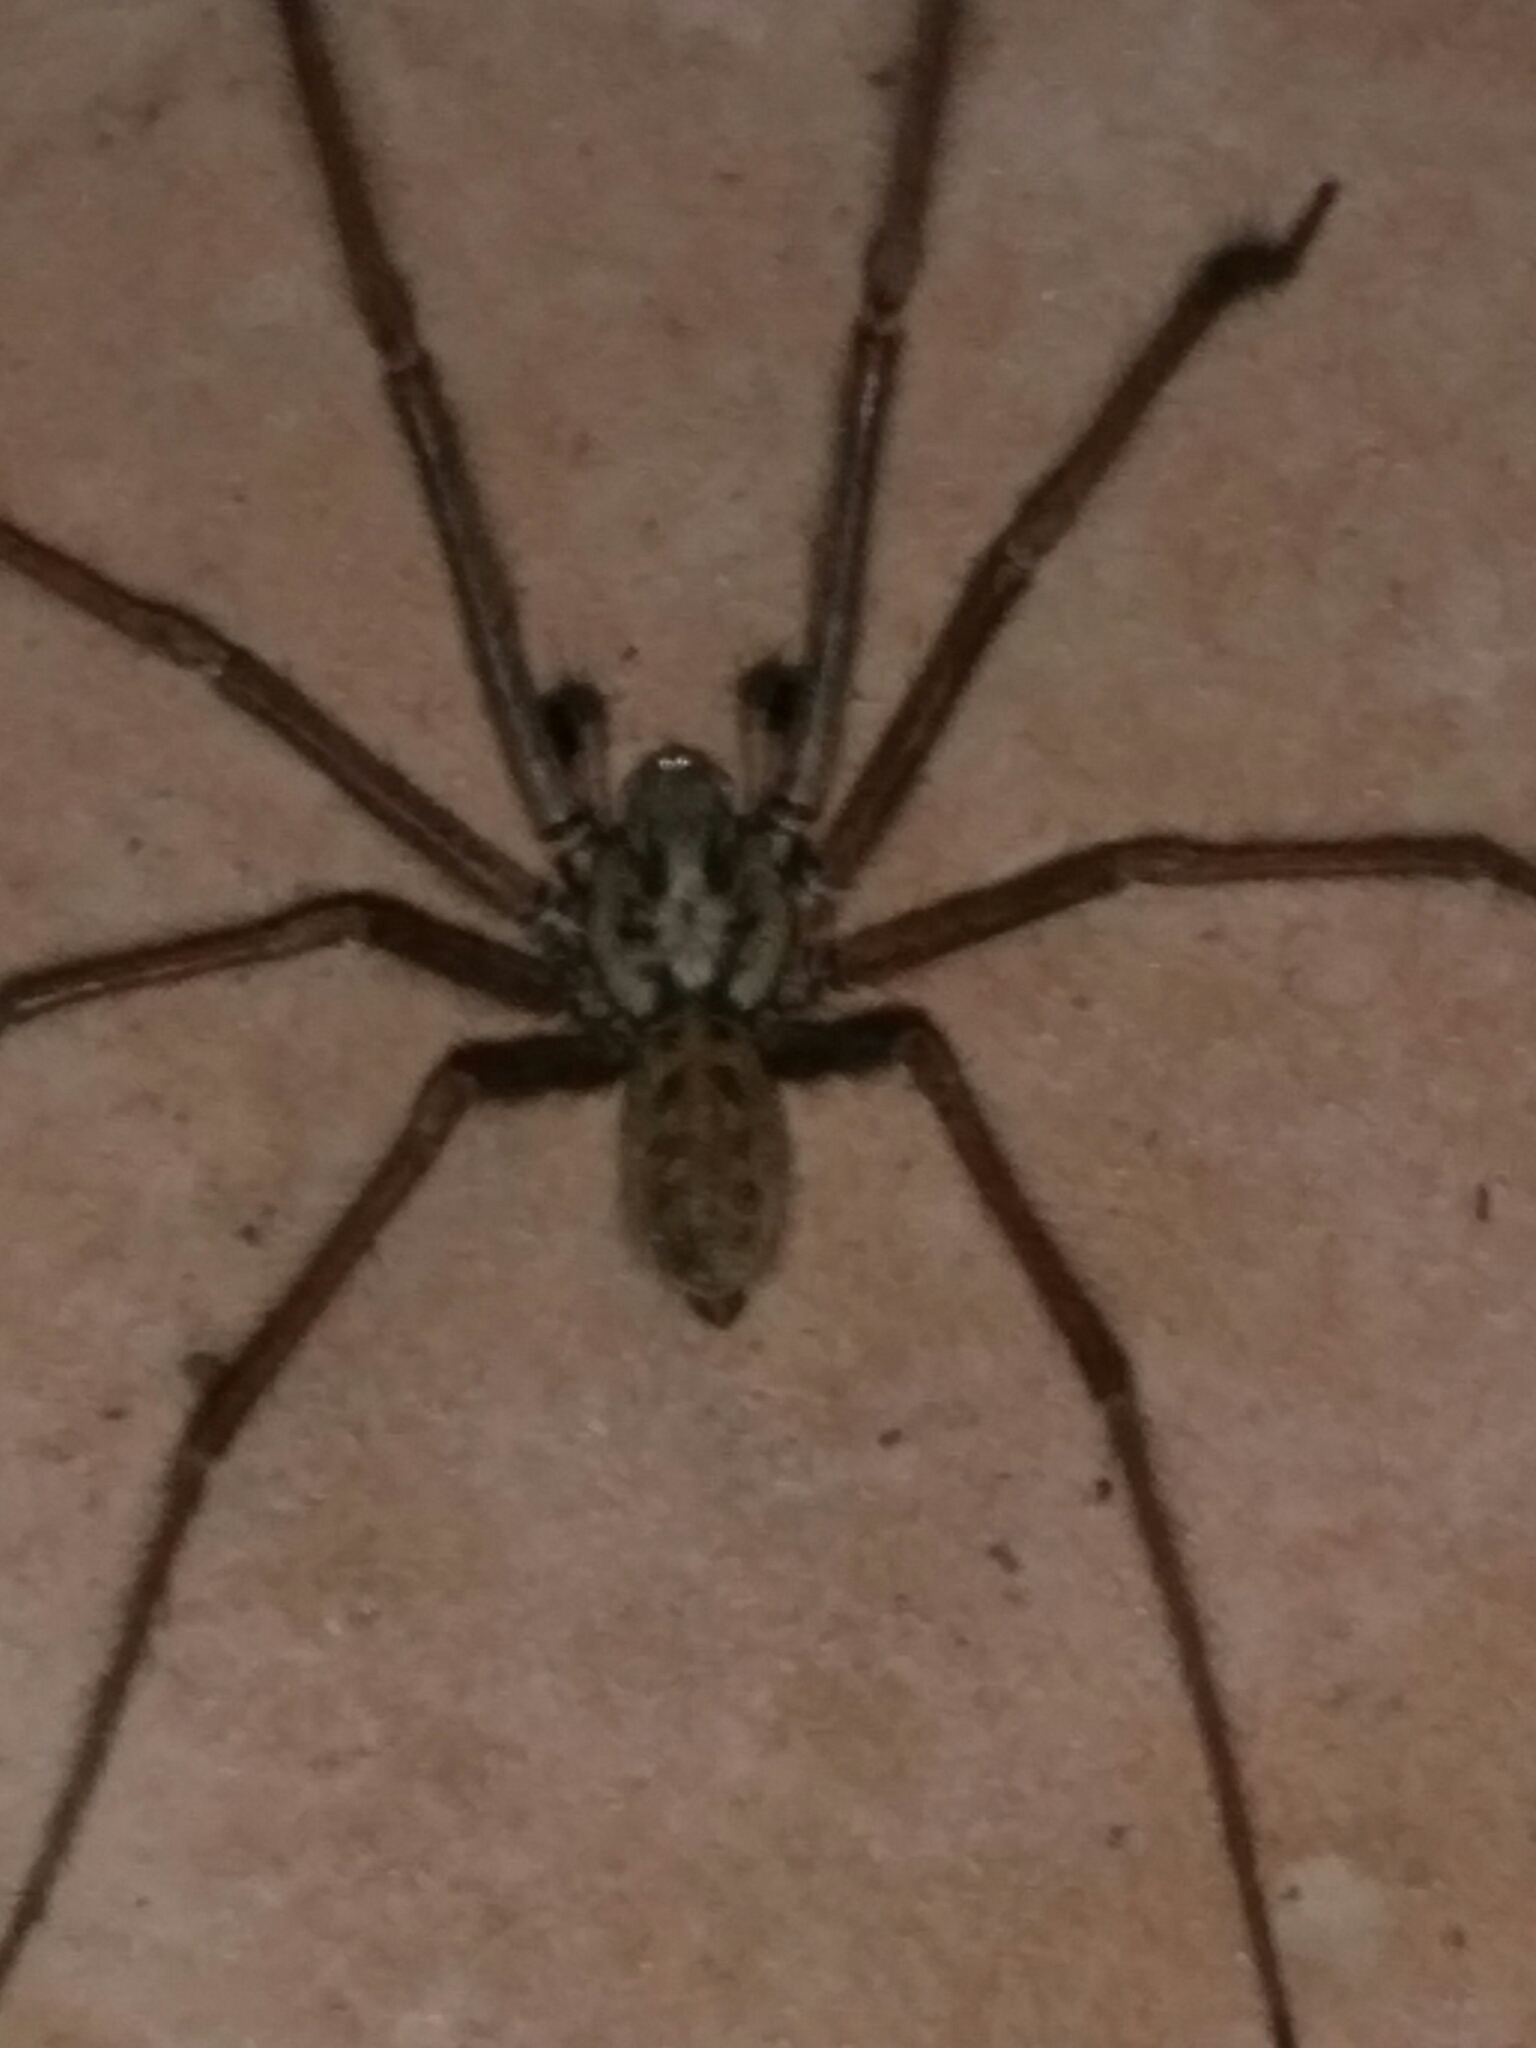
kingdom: Animalia
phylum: Arthropoda
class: Arachnida
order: Araneae
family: Agelenidae
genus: Eratigena
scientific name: Eratigena
